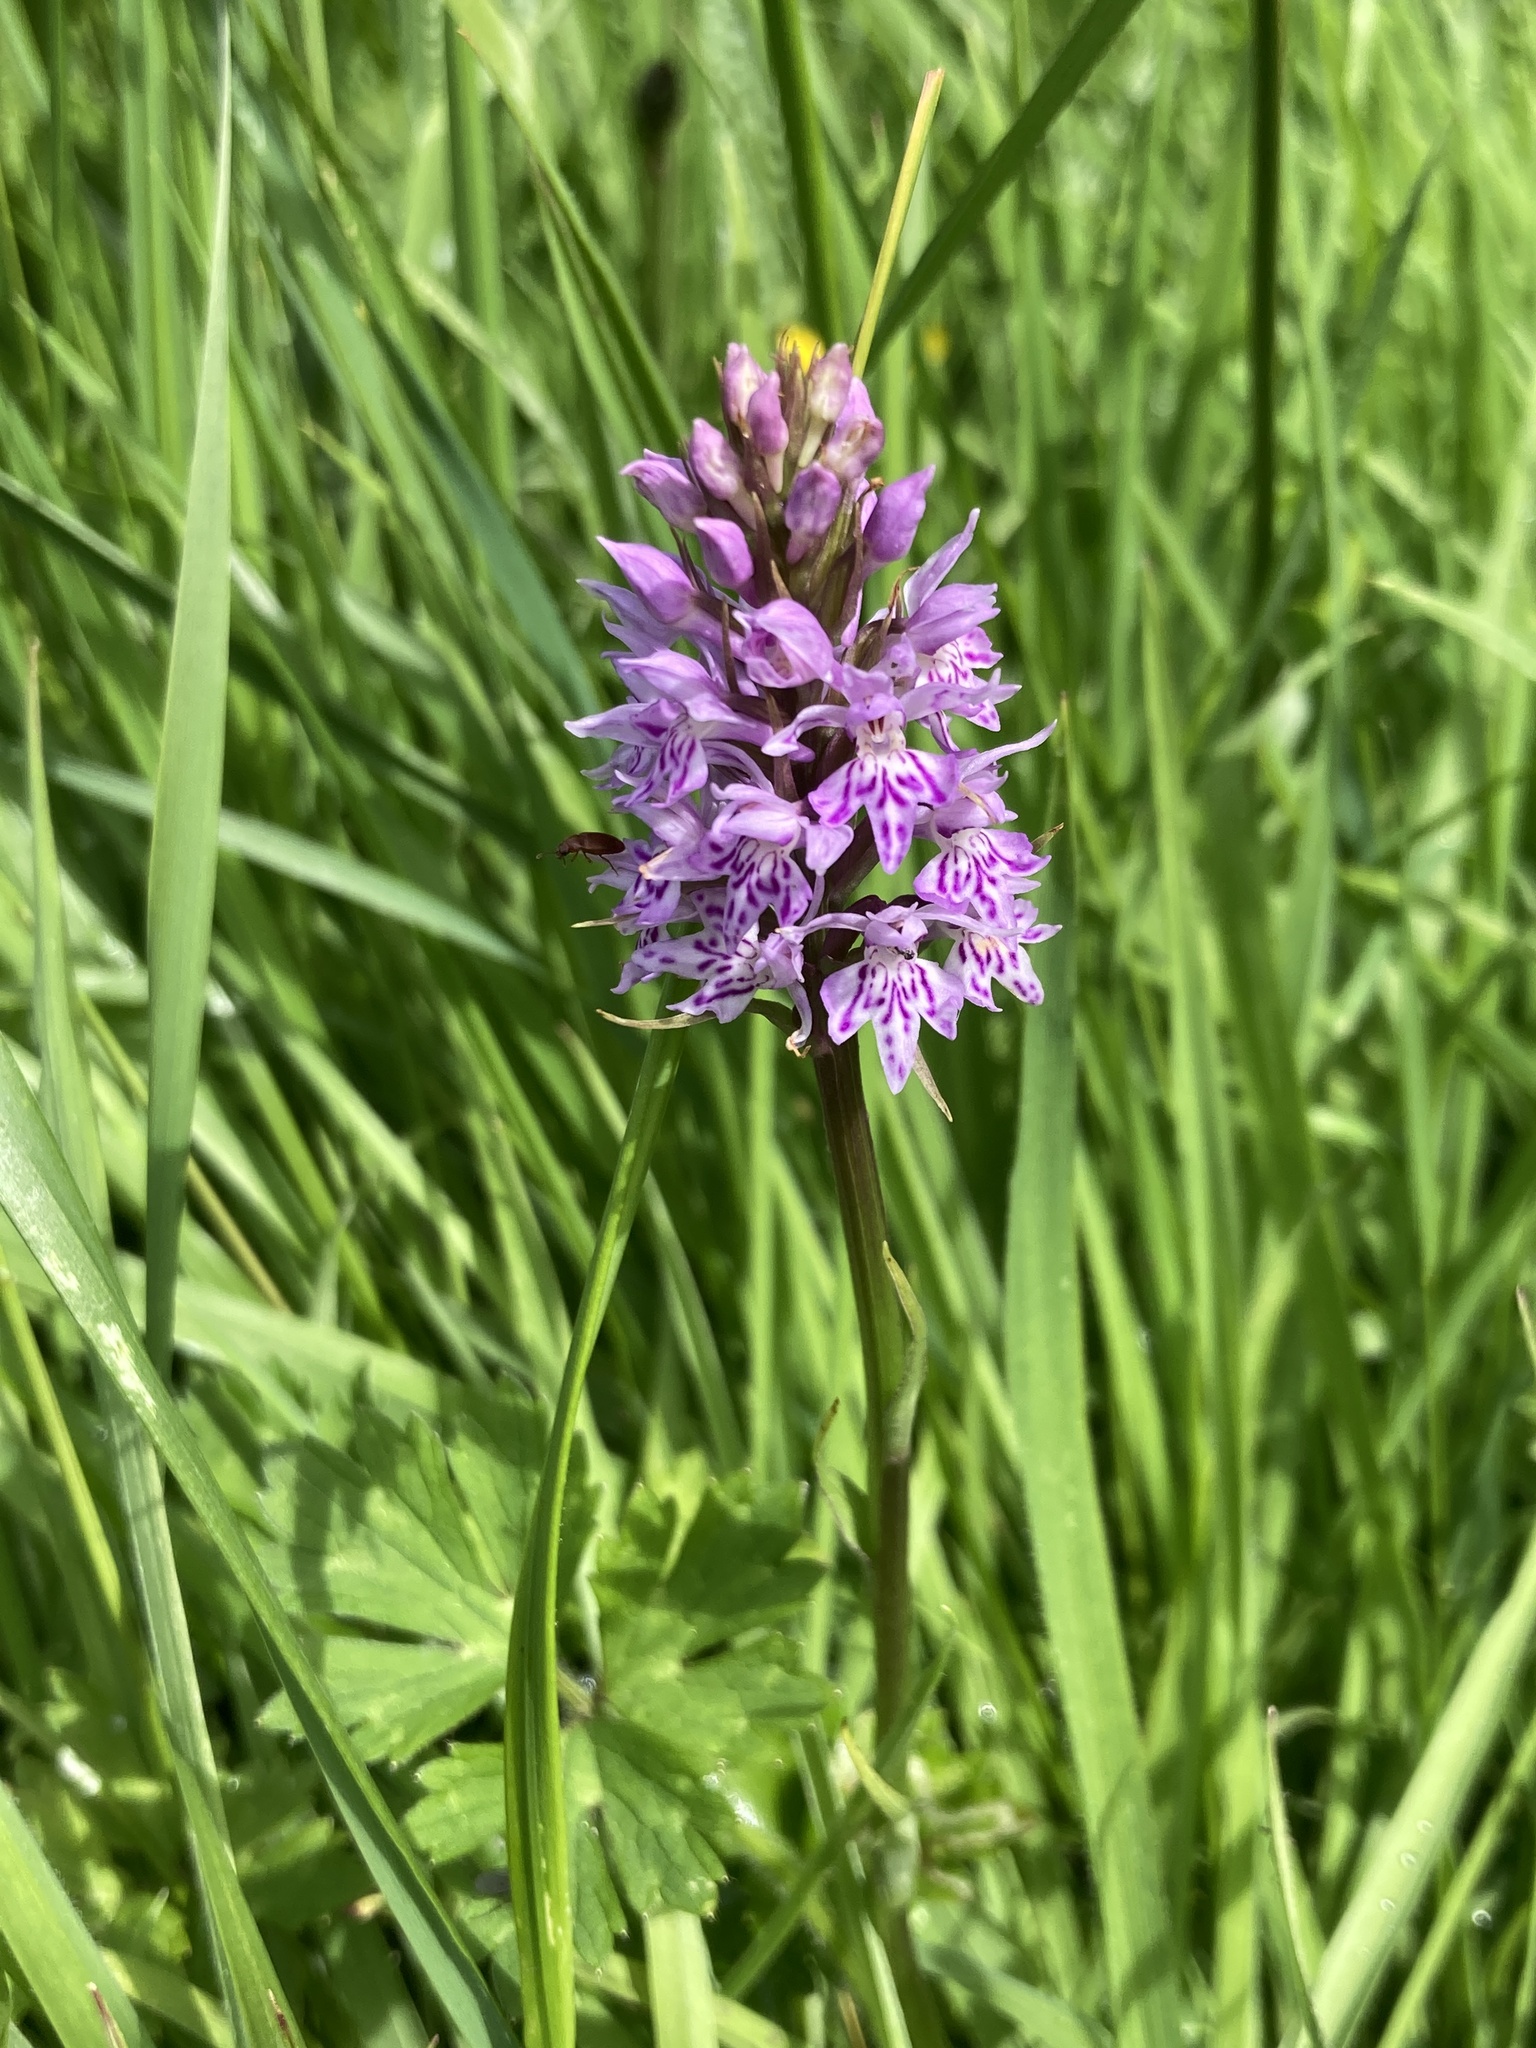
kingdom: Plantae
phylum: Tracheophyta
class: Liliopsida
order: Asparagales
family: Orchidaceae
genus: Dactylorhiza
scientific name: Dactylorhiza maculata
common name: Heath spotted-orchid
